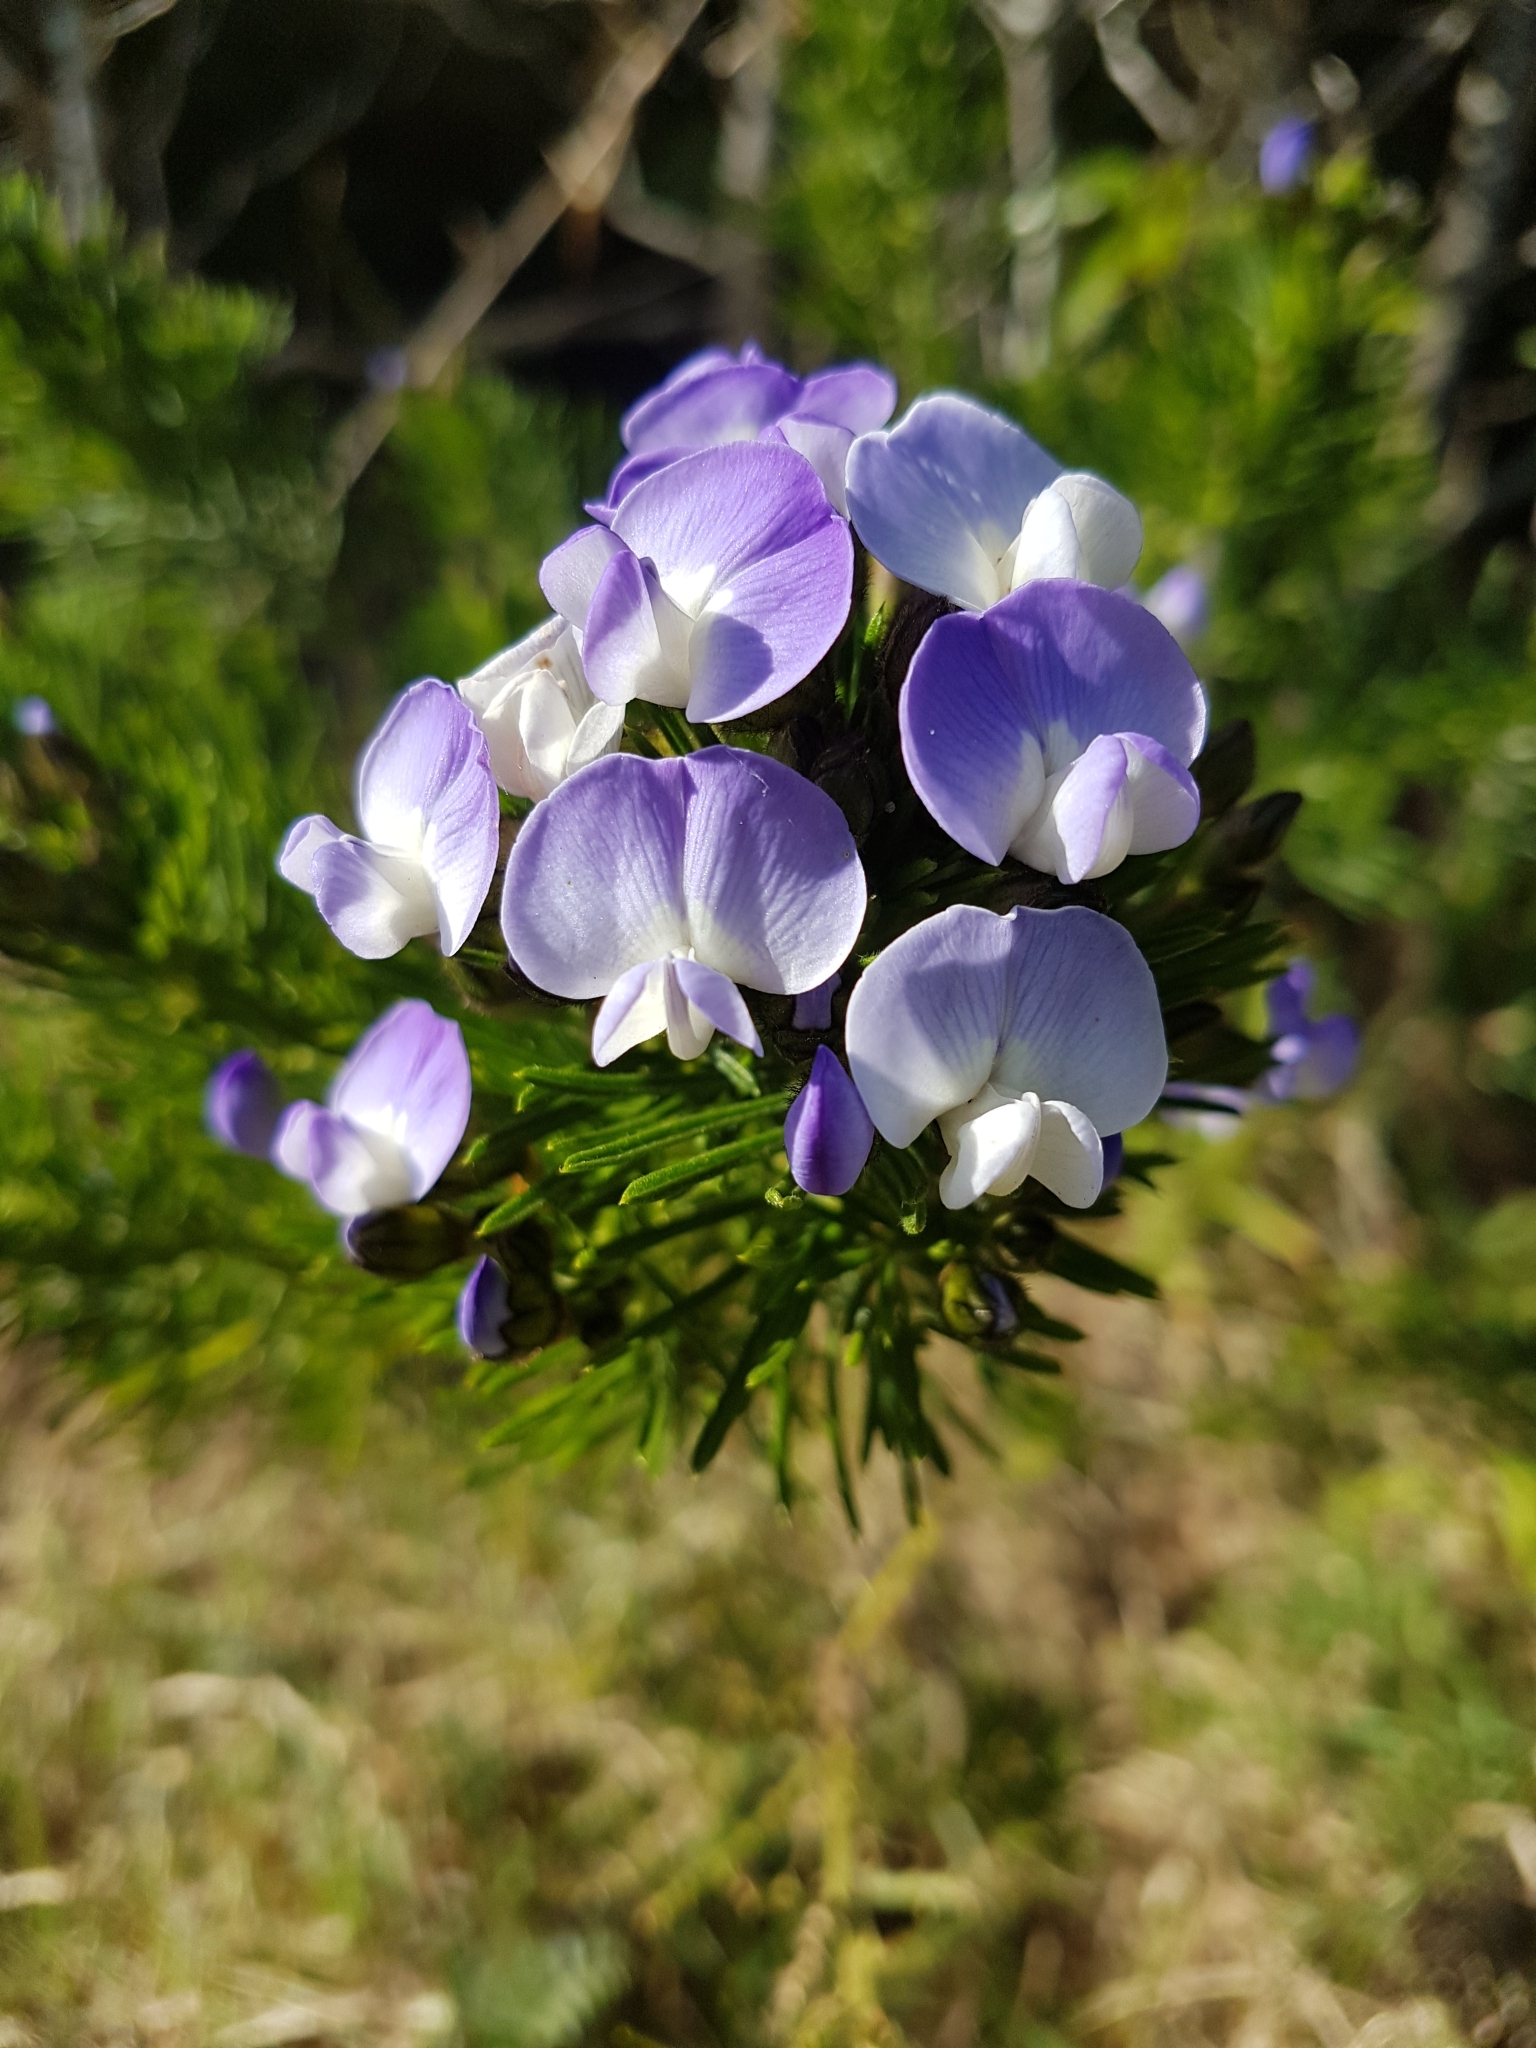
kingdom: Plantae
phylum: Tracheophyta
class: Magnoliopsida
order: Fabales
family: Fabaceae
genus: Psoralea
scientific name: Psoralea pinnata
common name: African scurfpea
